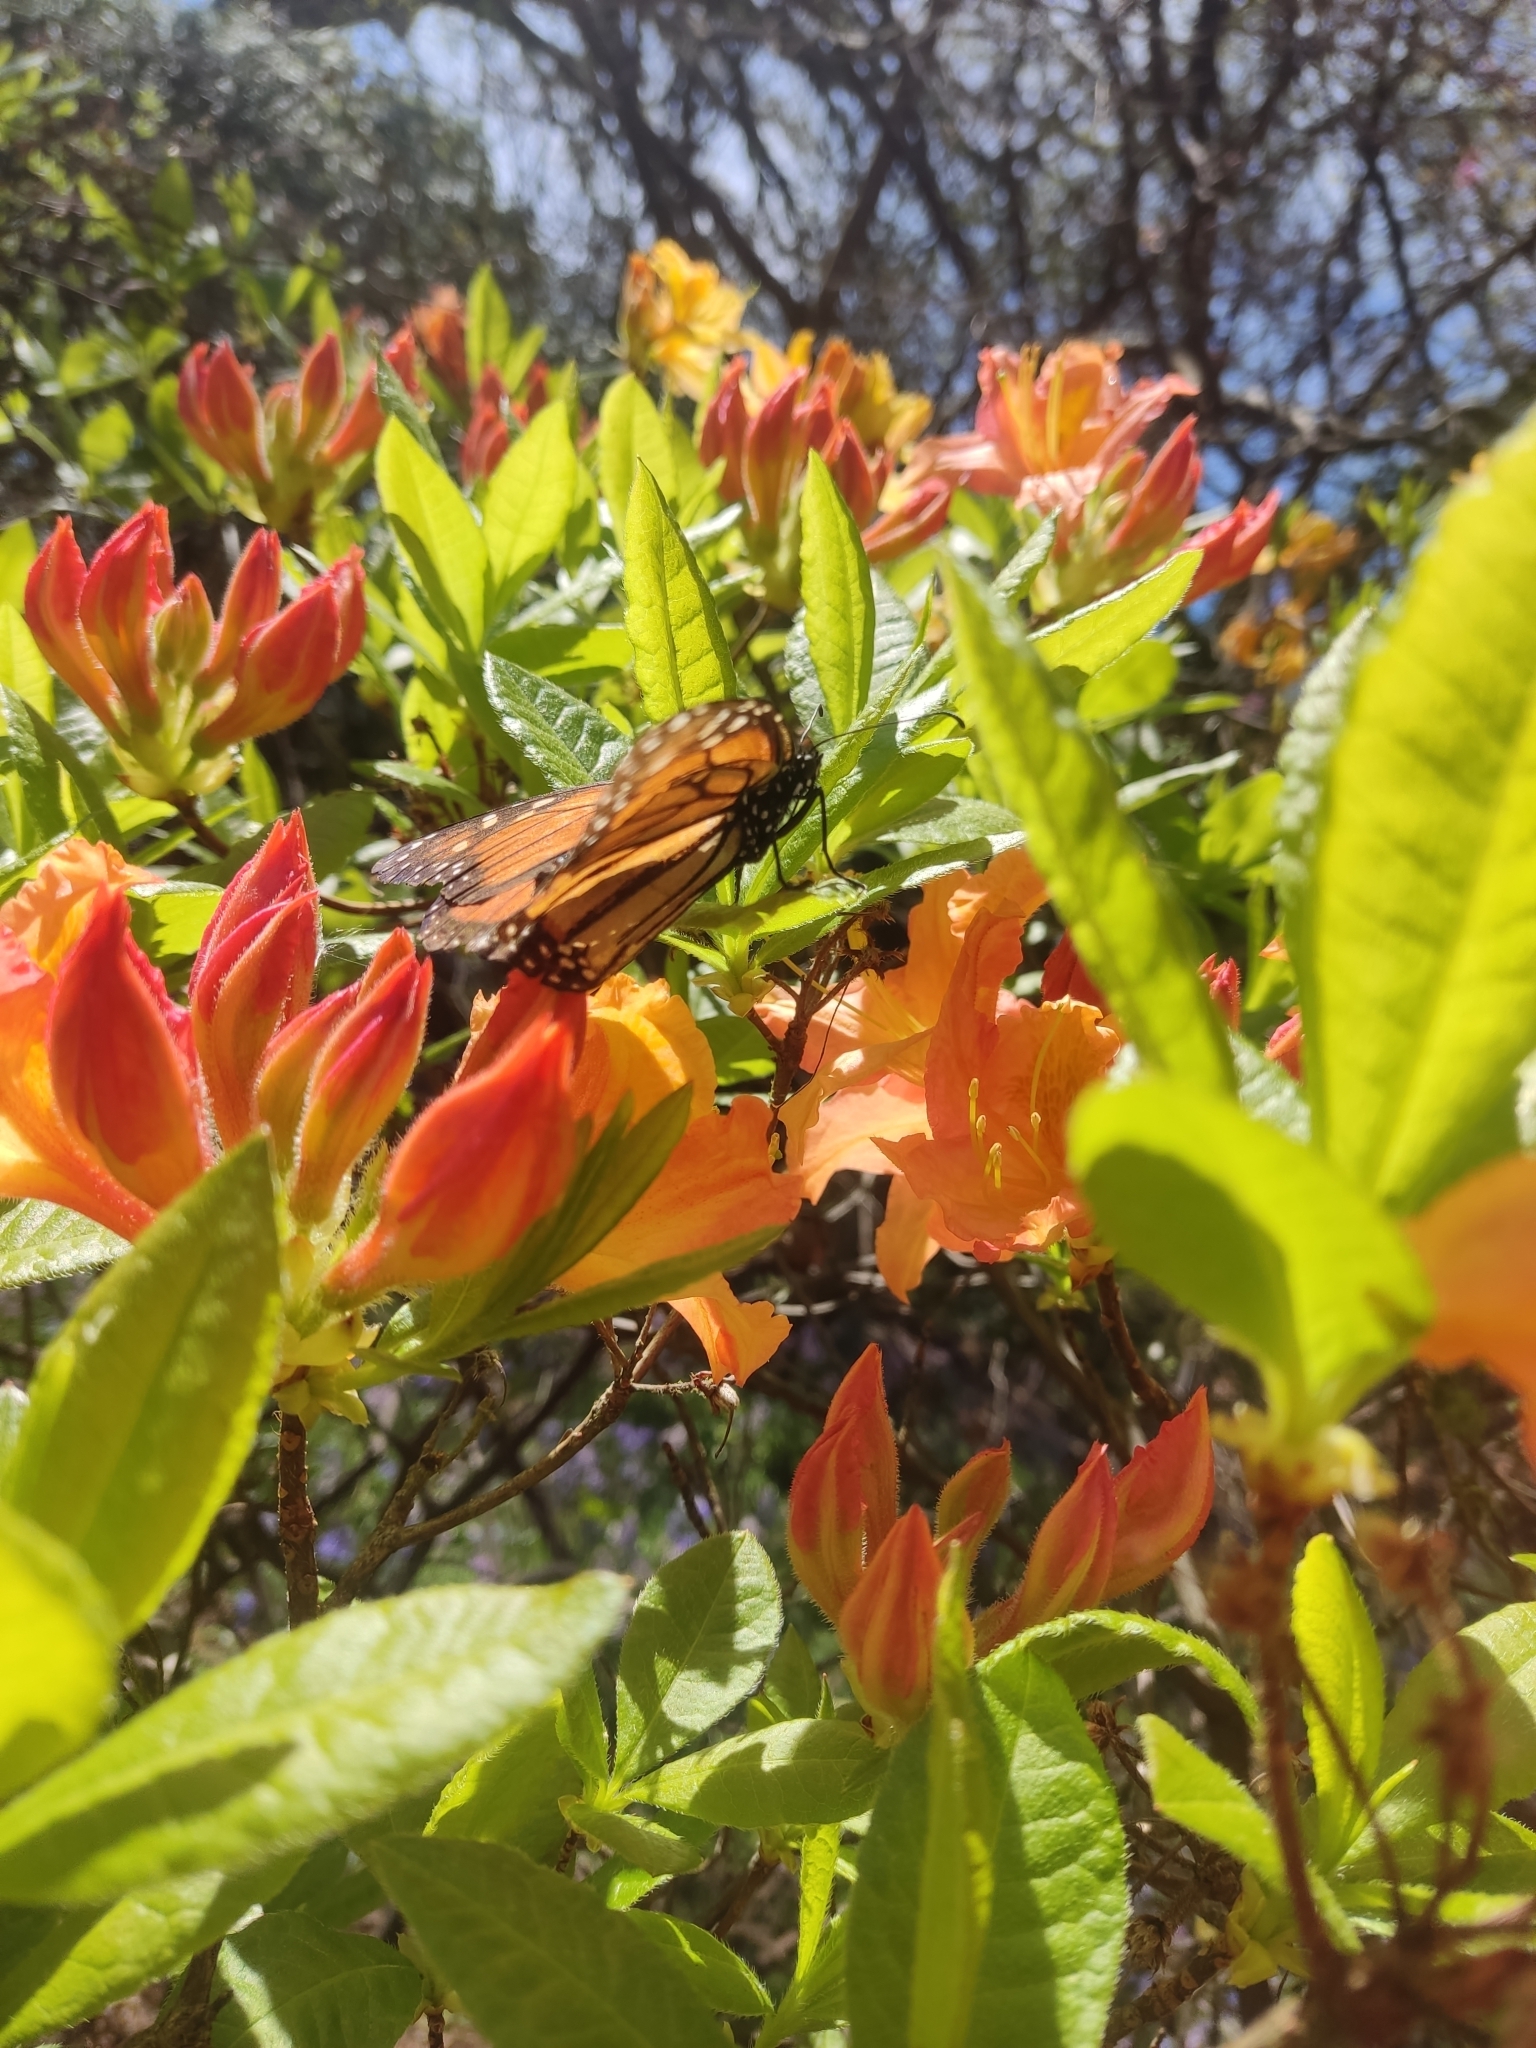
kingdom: Animalia
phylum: Arthropoda
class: Insecta
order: Lepidoptera
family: Nymphalidae
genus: Danaus
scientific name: Danaus plexippus
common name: Monarch
